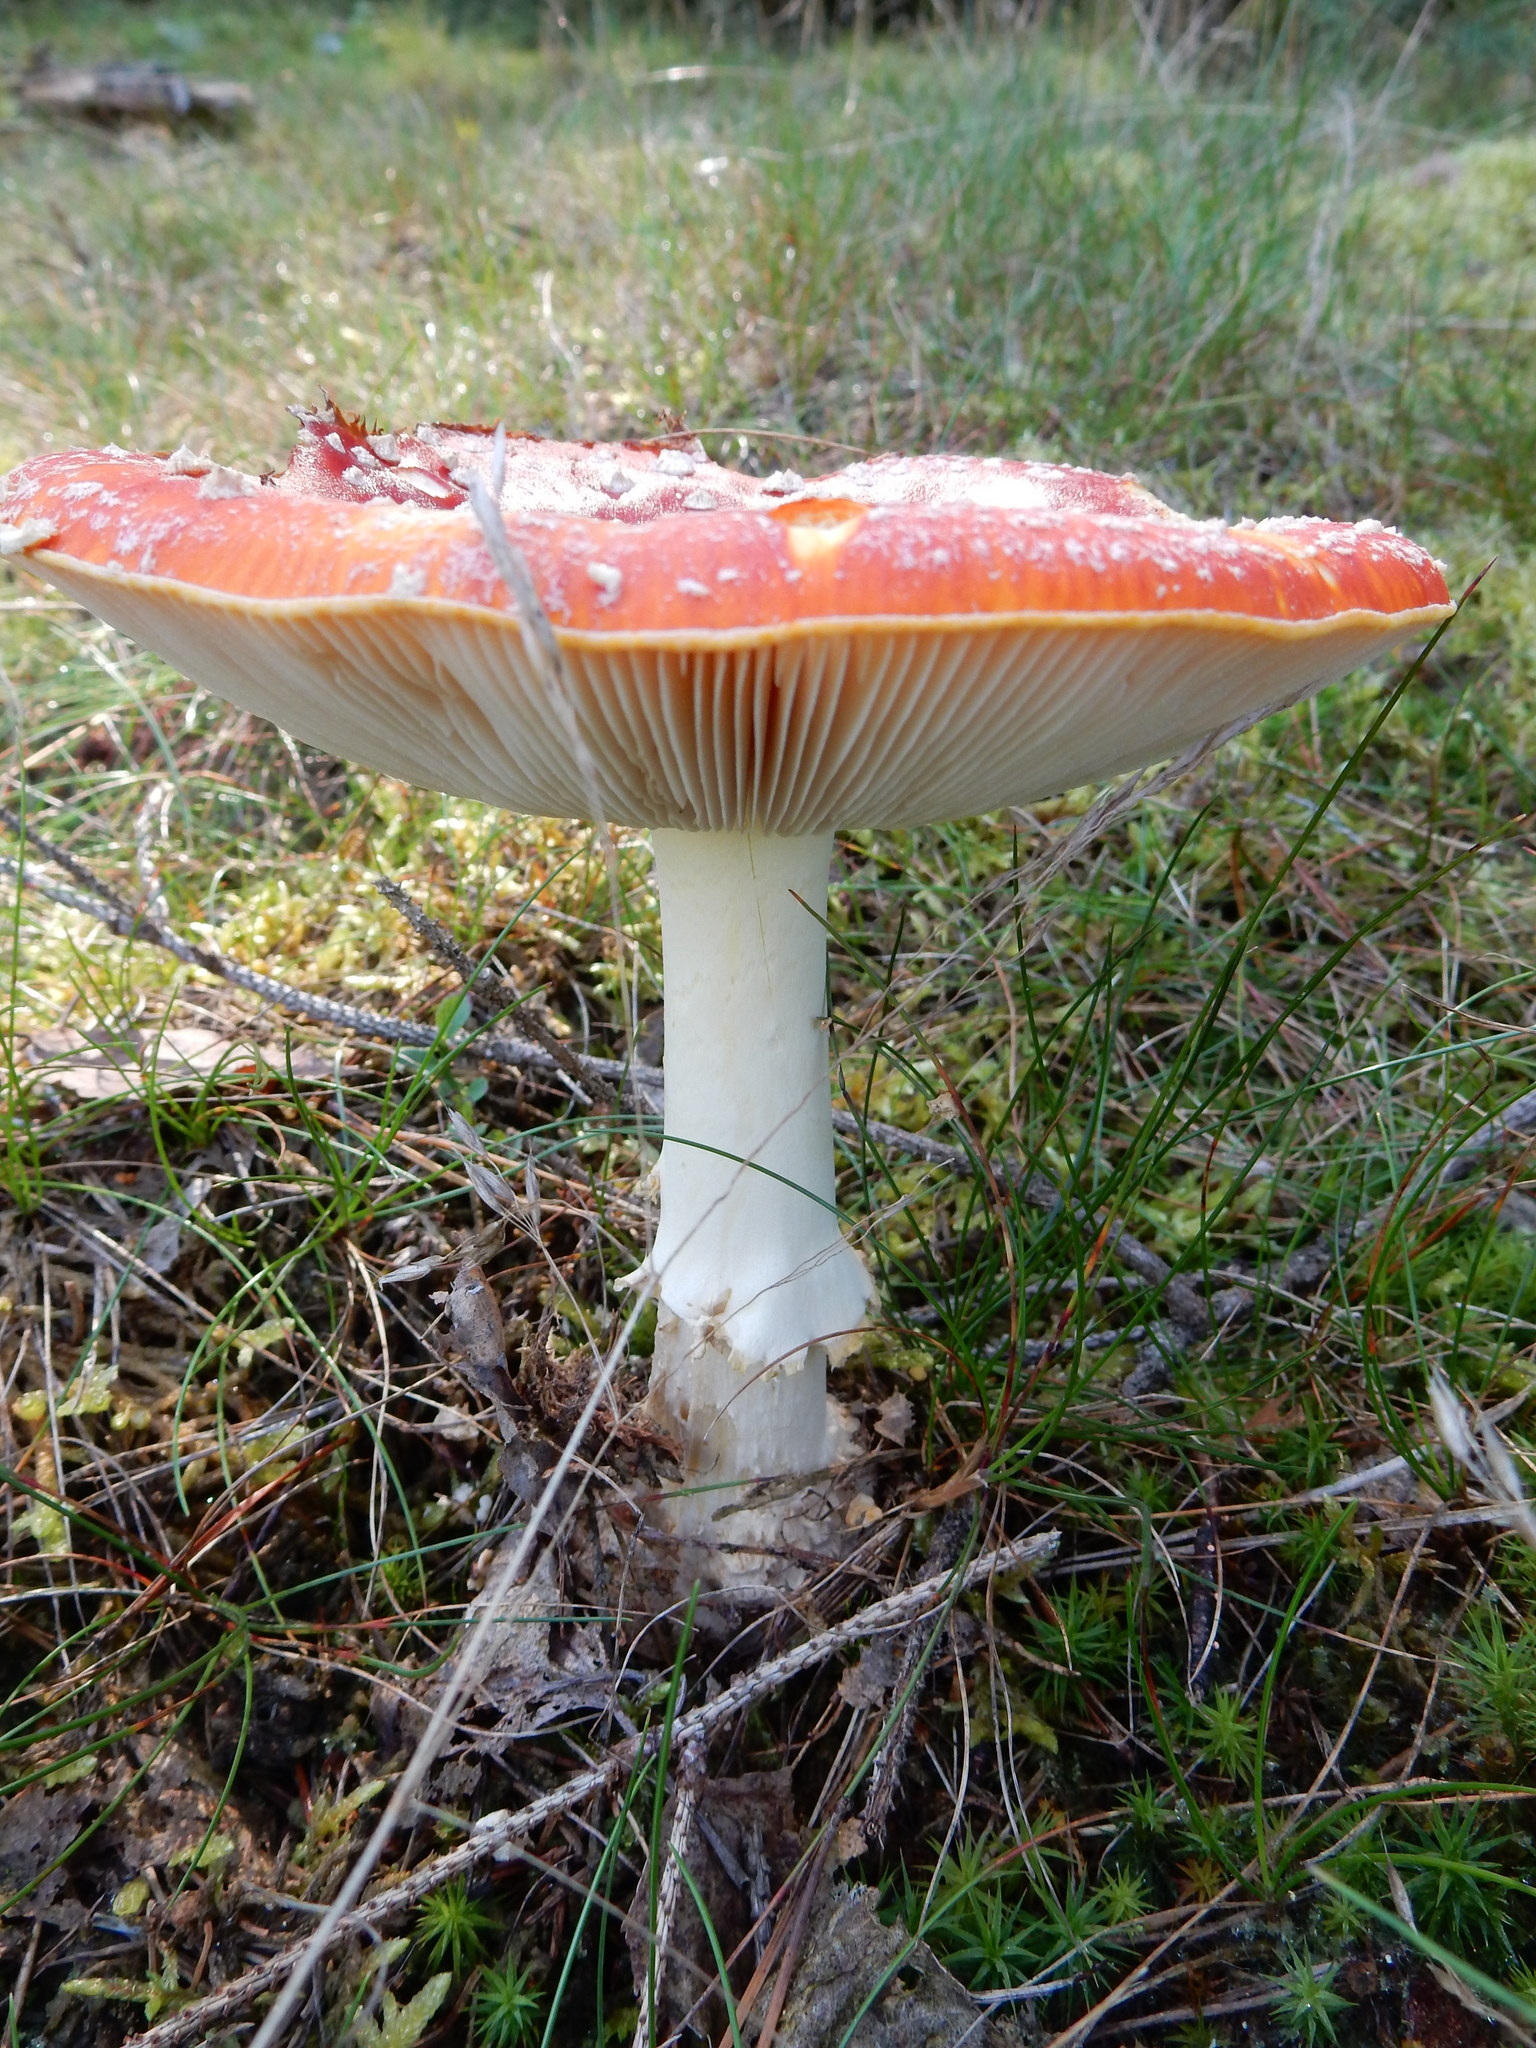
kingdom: Fungi
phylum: Basidiomycota
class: Agaricomycetes
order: Agaricales
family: Amanitaceae
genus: Amanita
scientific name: Amanita muscaria
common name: Fly agaric
